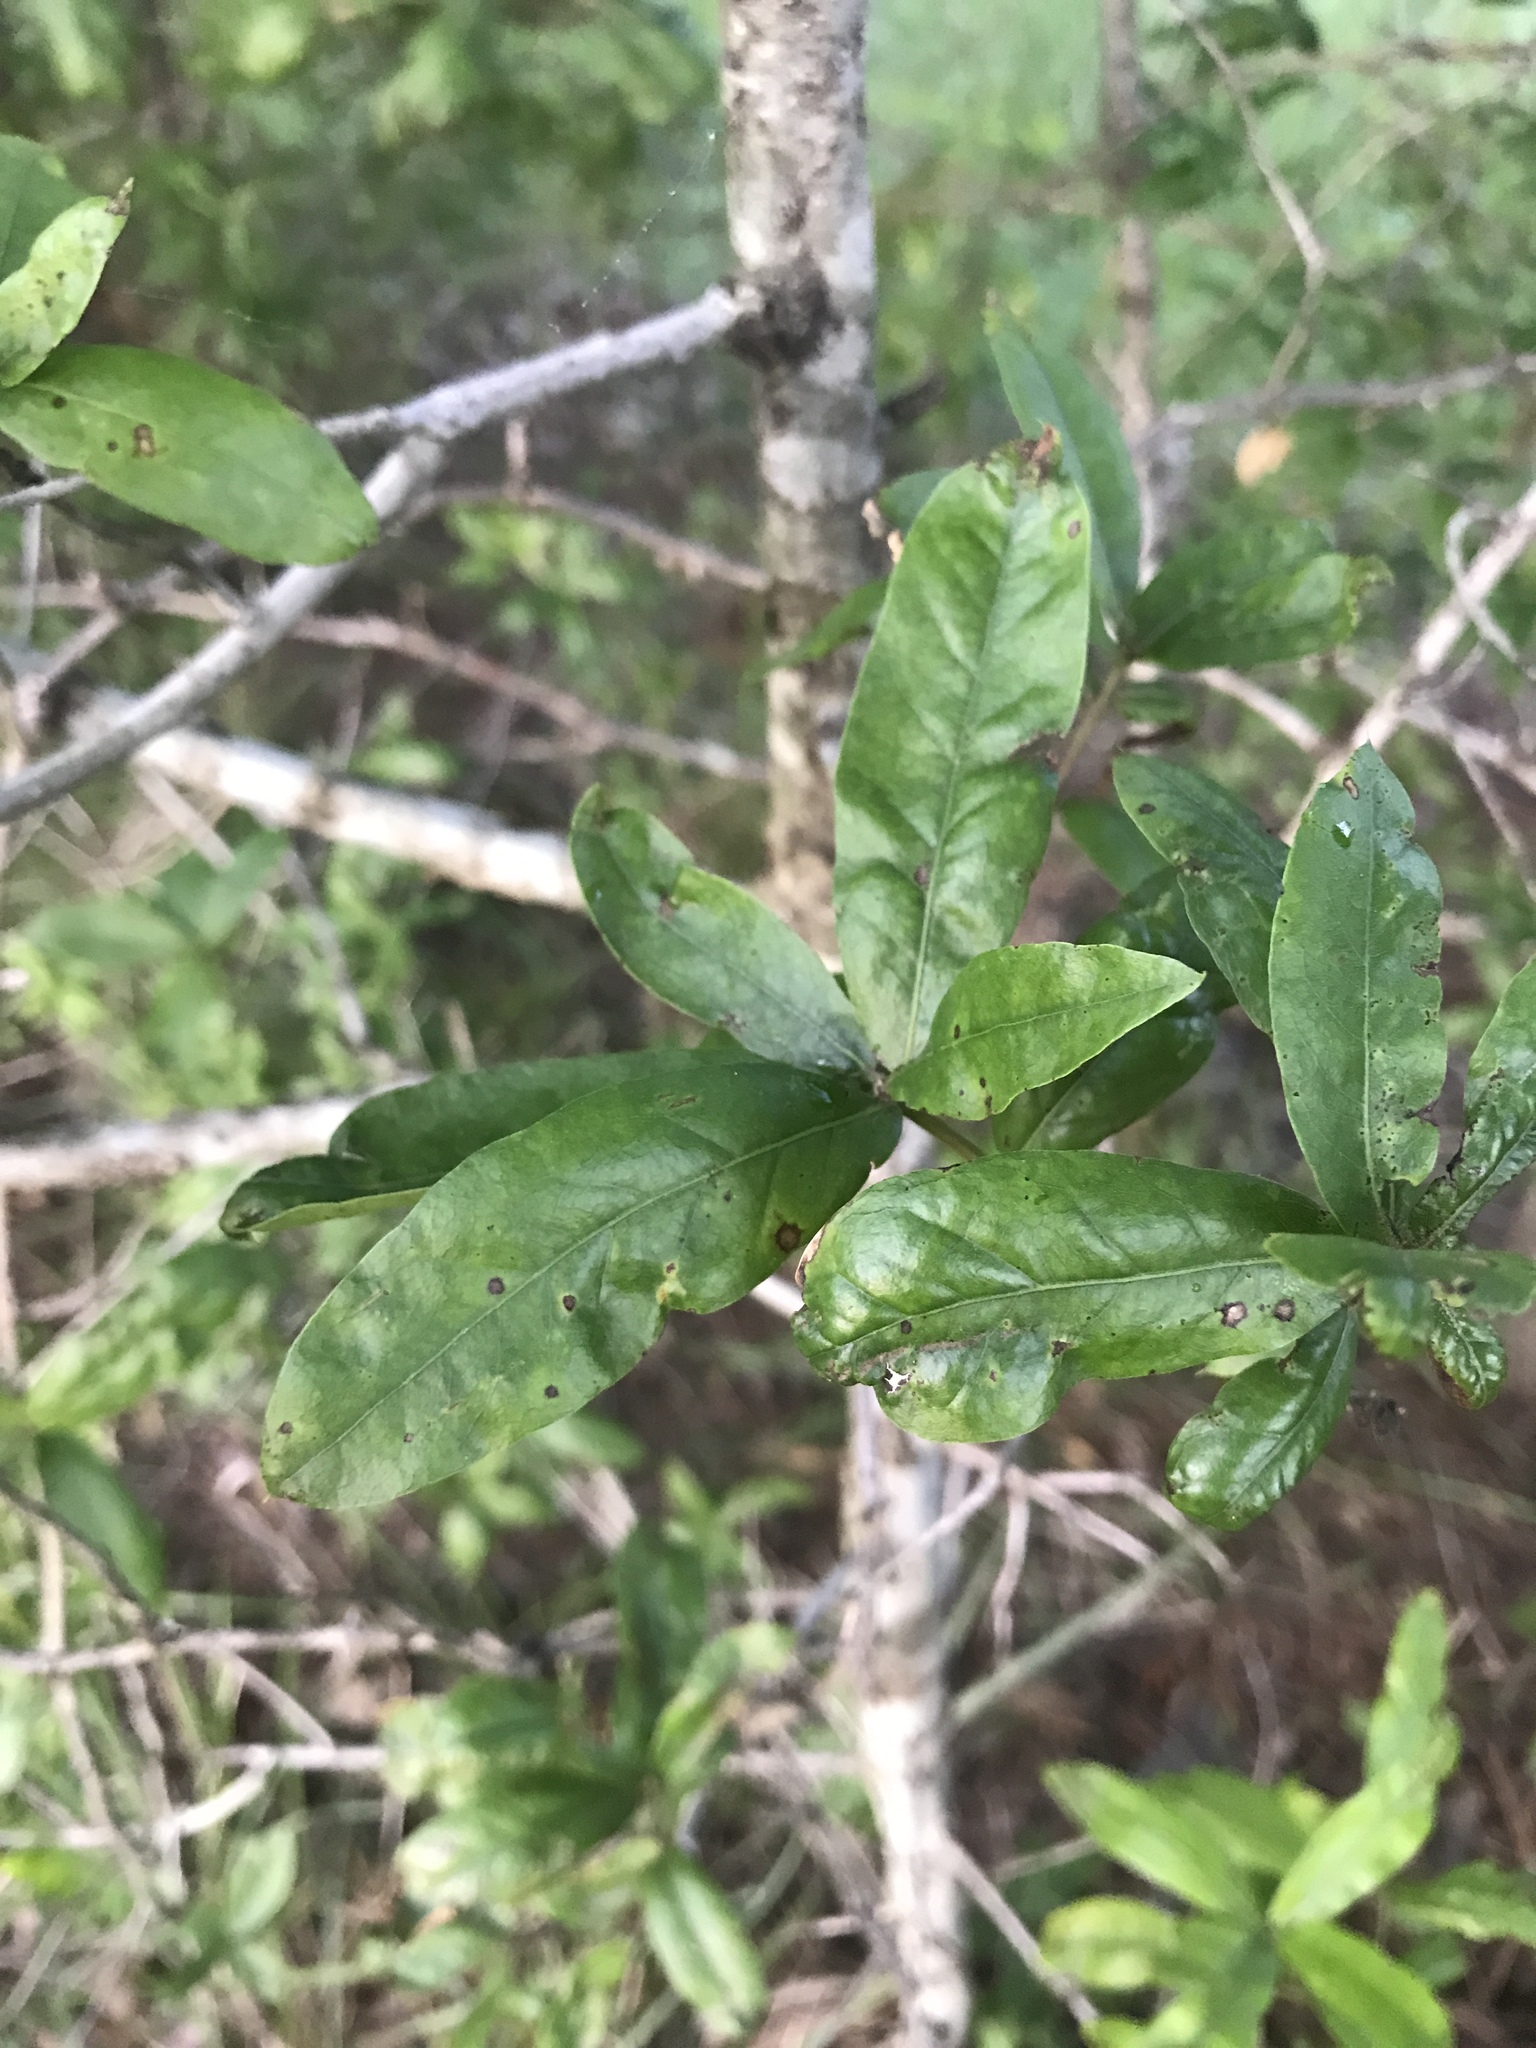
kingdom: Plantae
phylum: Tracheophyta
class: Magnoliopsida
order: Fagales
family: Fagaceae
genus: Quercus
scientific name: Quercus phellos
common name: Willow oak
